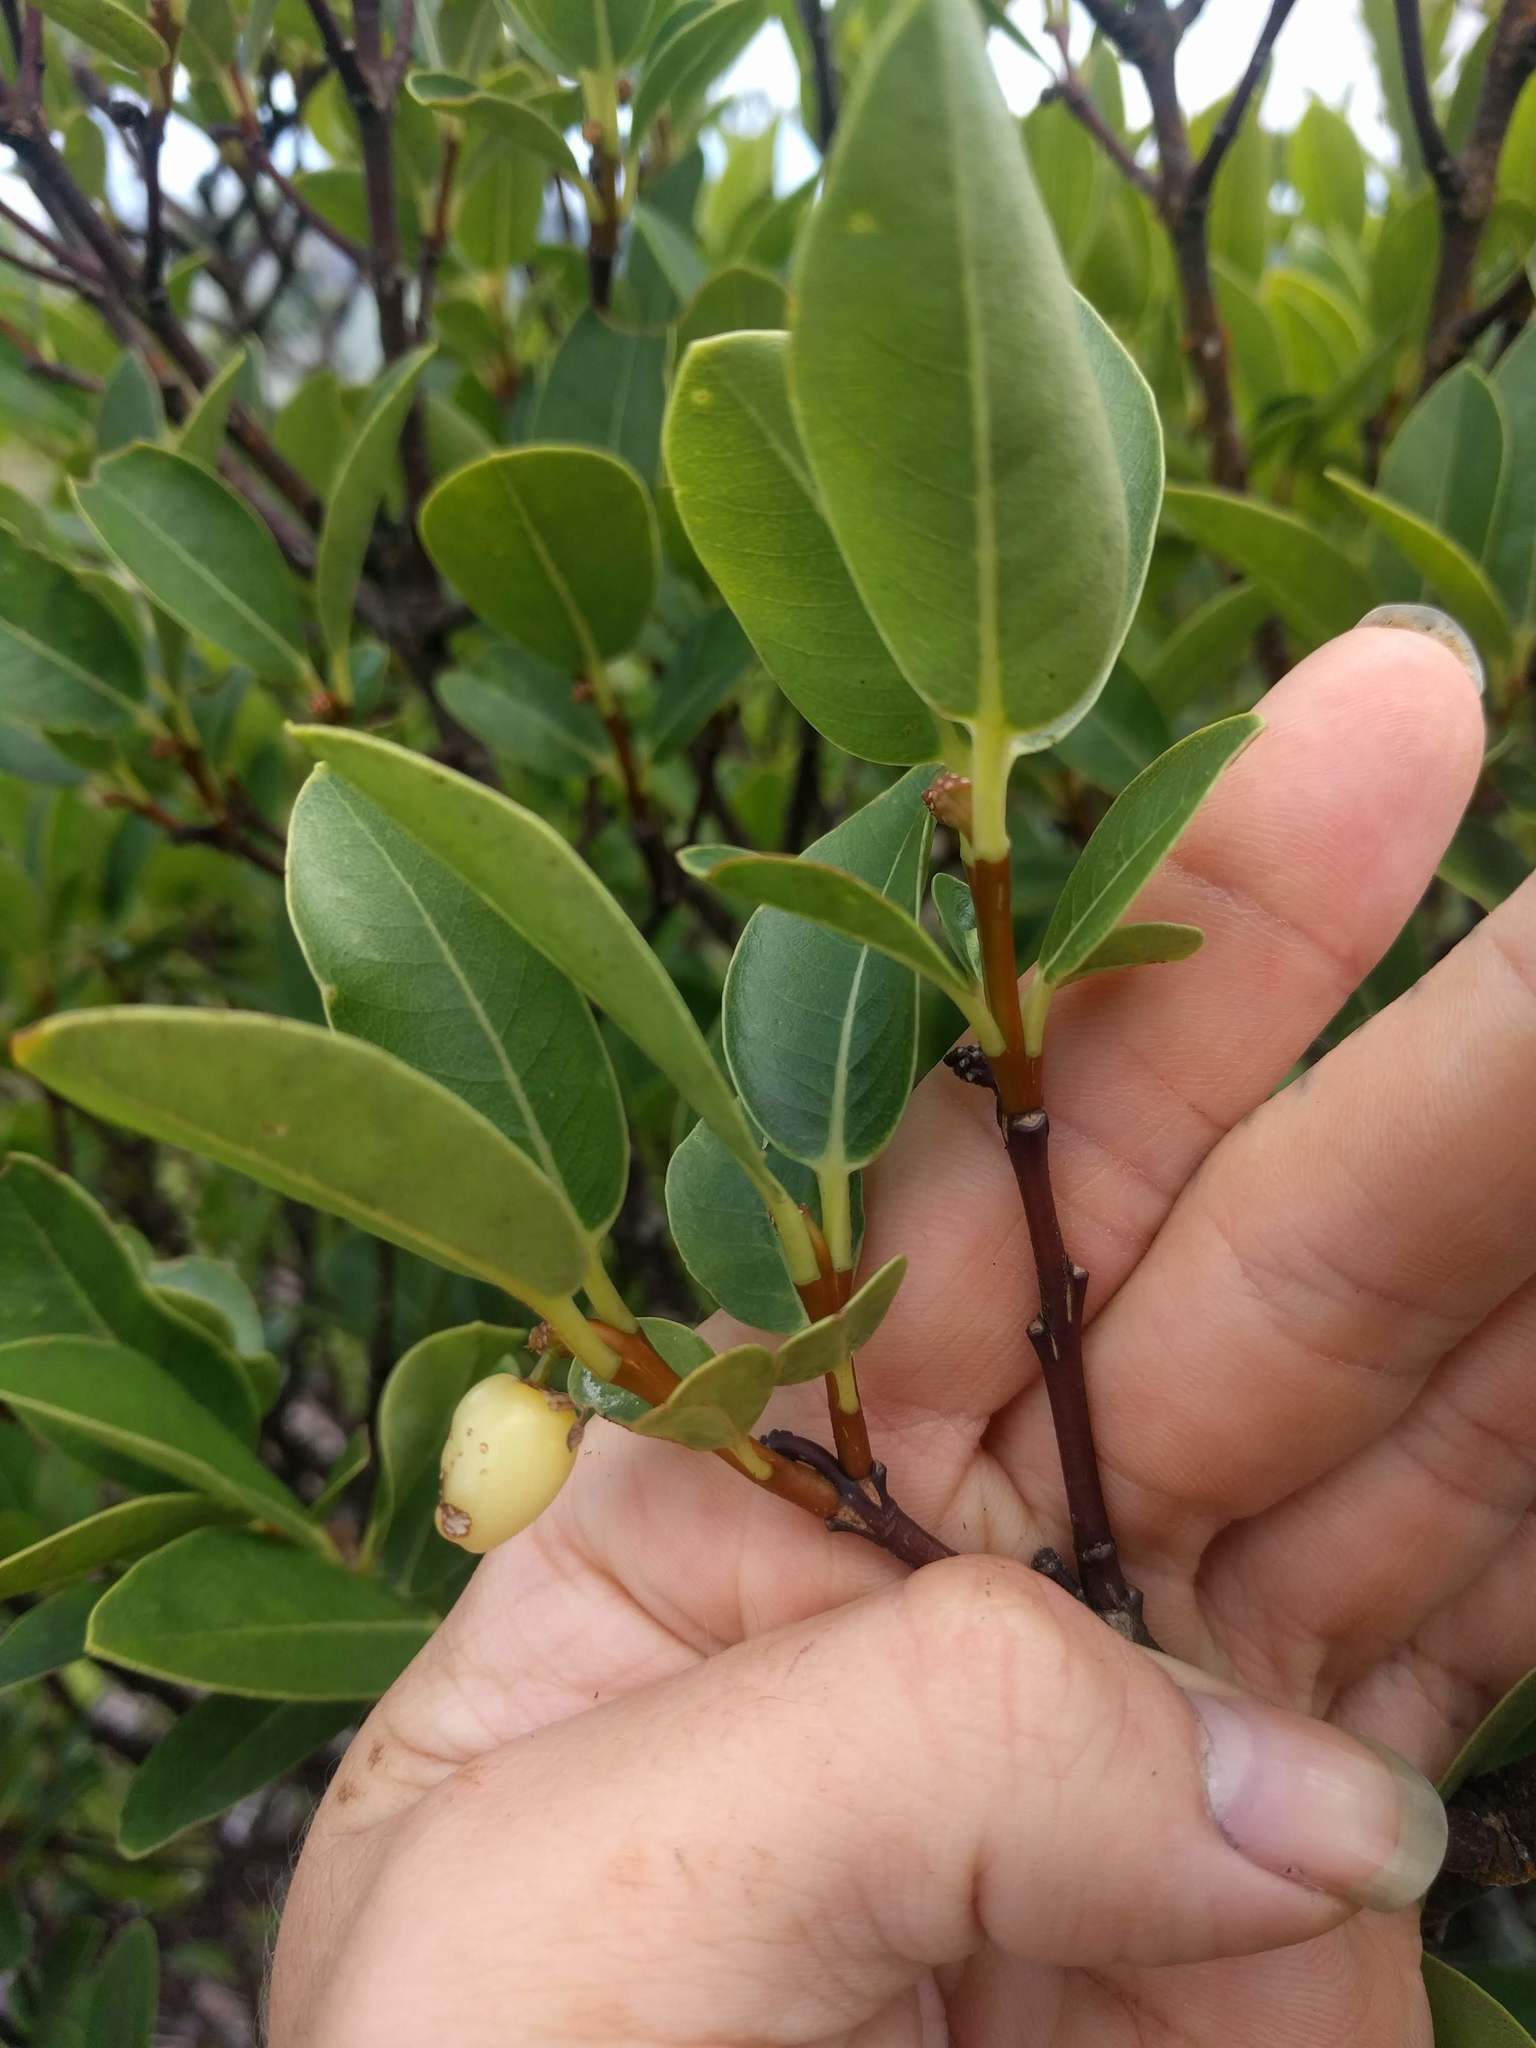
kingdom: Plantae
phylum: Tracheophyta
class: Magnoliopsida
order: Malvales
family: Thymelaeaceae
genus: Wikstroemia
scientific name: Wikstroemia oahuensis
